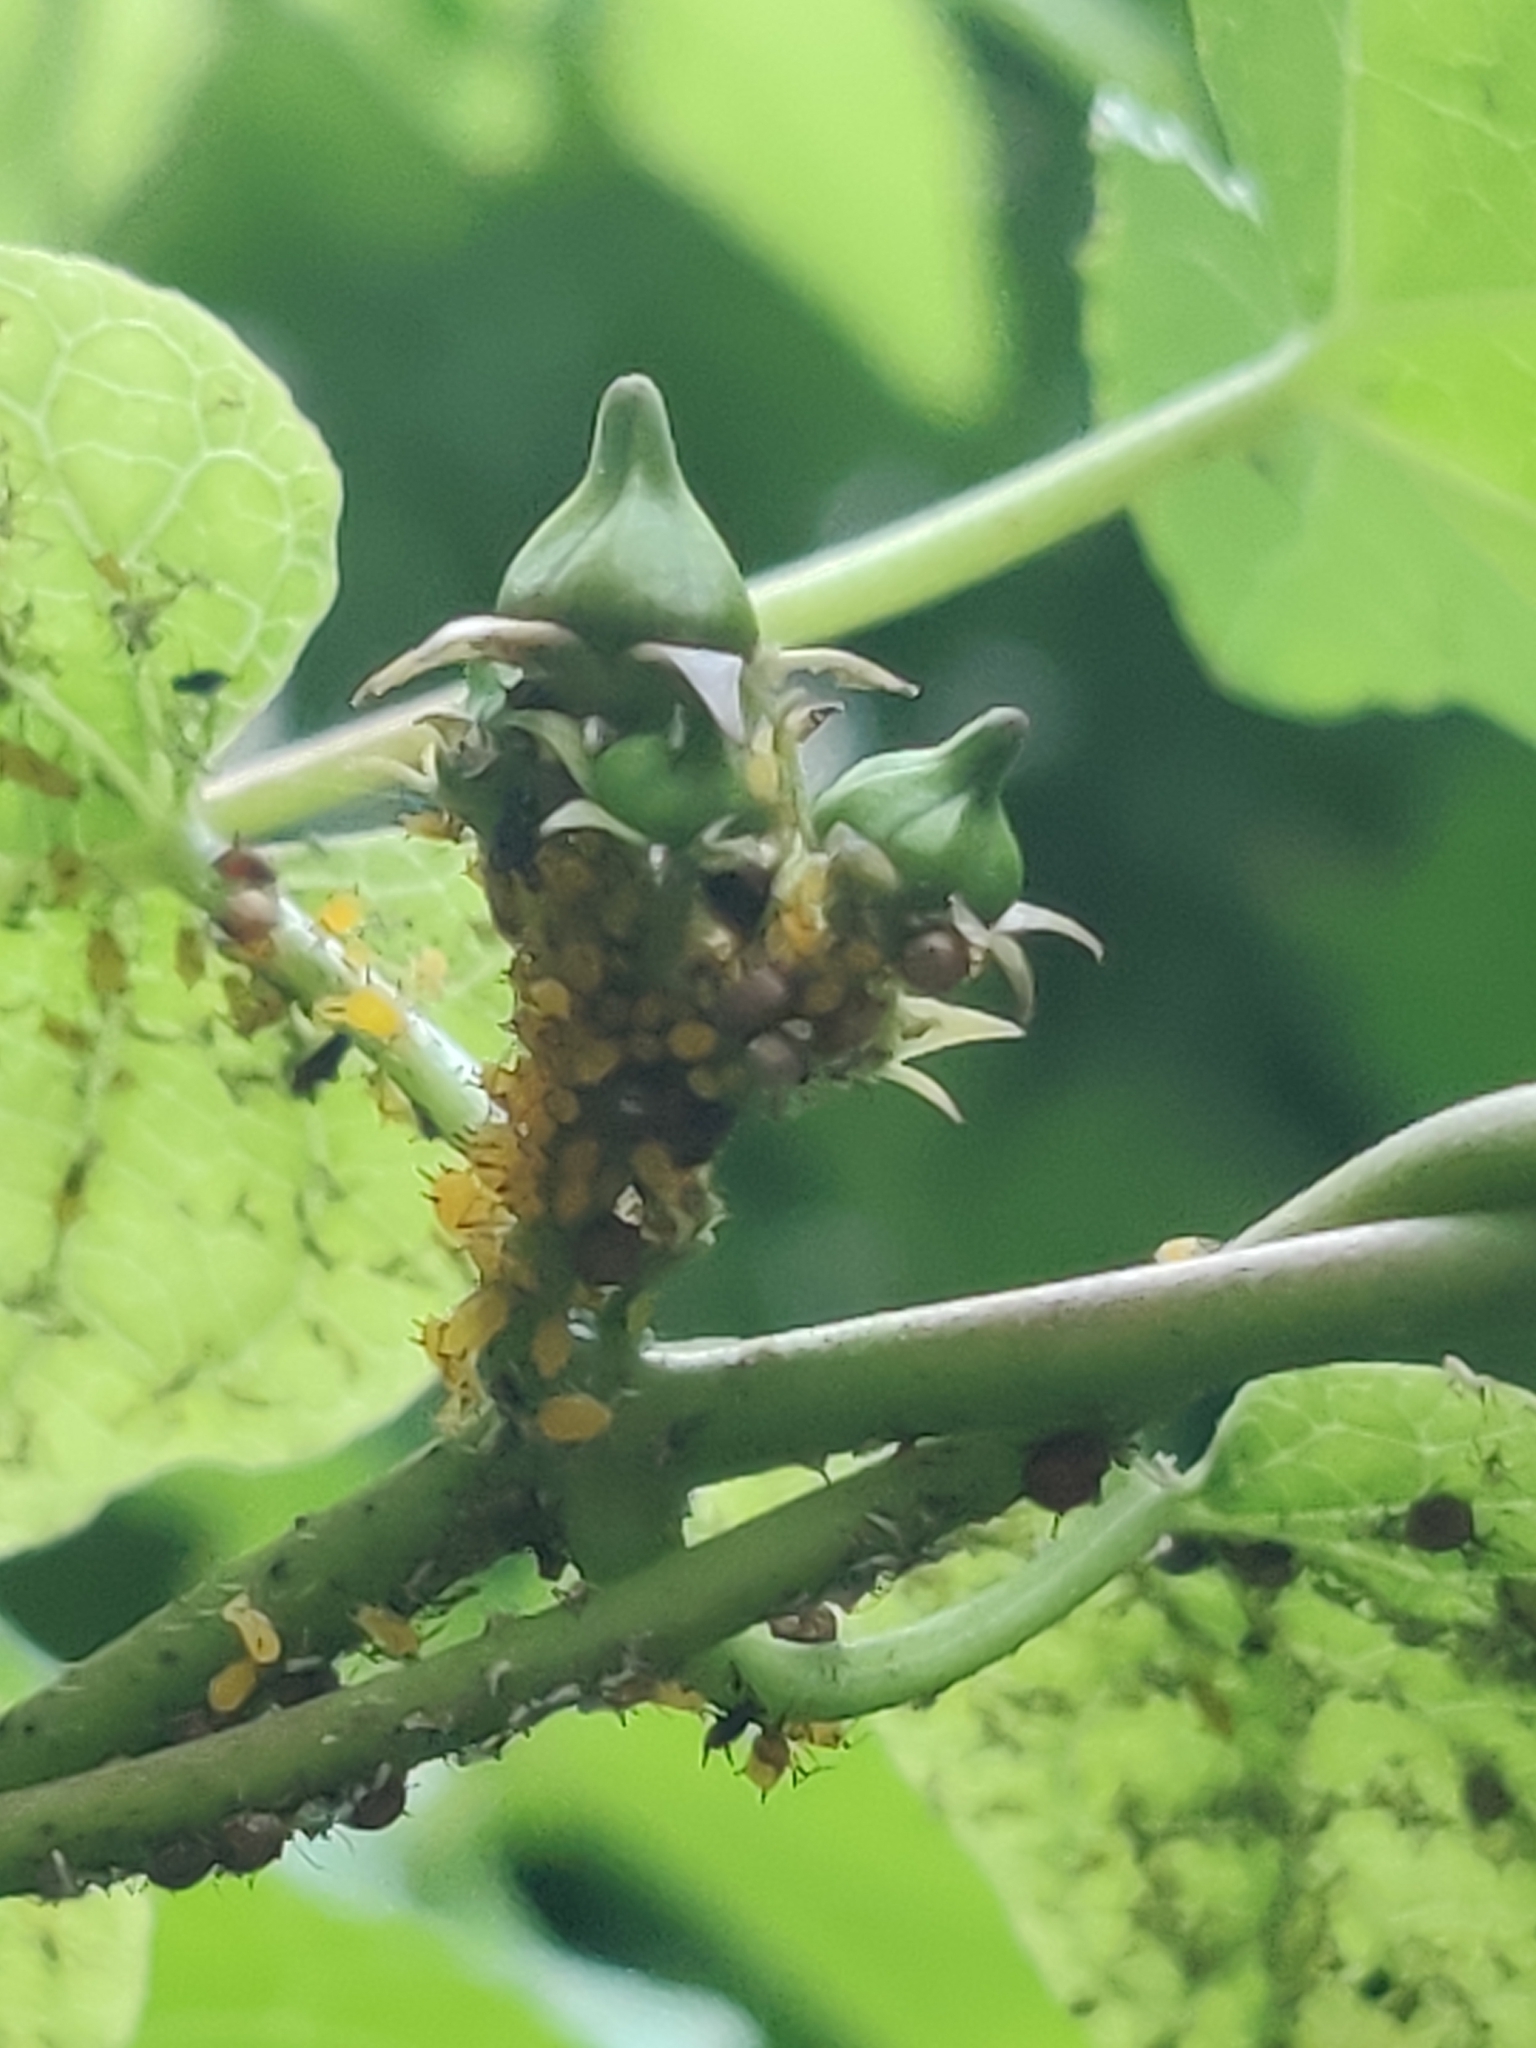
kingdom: Animalia
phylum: Arthropoda
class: Insecta
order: Hemiptera
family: Aphididae
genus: Aphis
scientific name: Aphis nerii
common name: Oleander aphid
